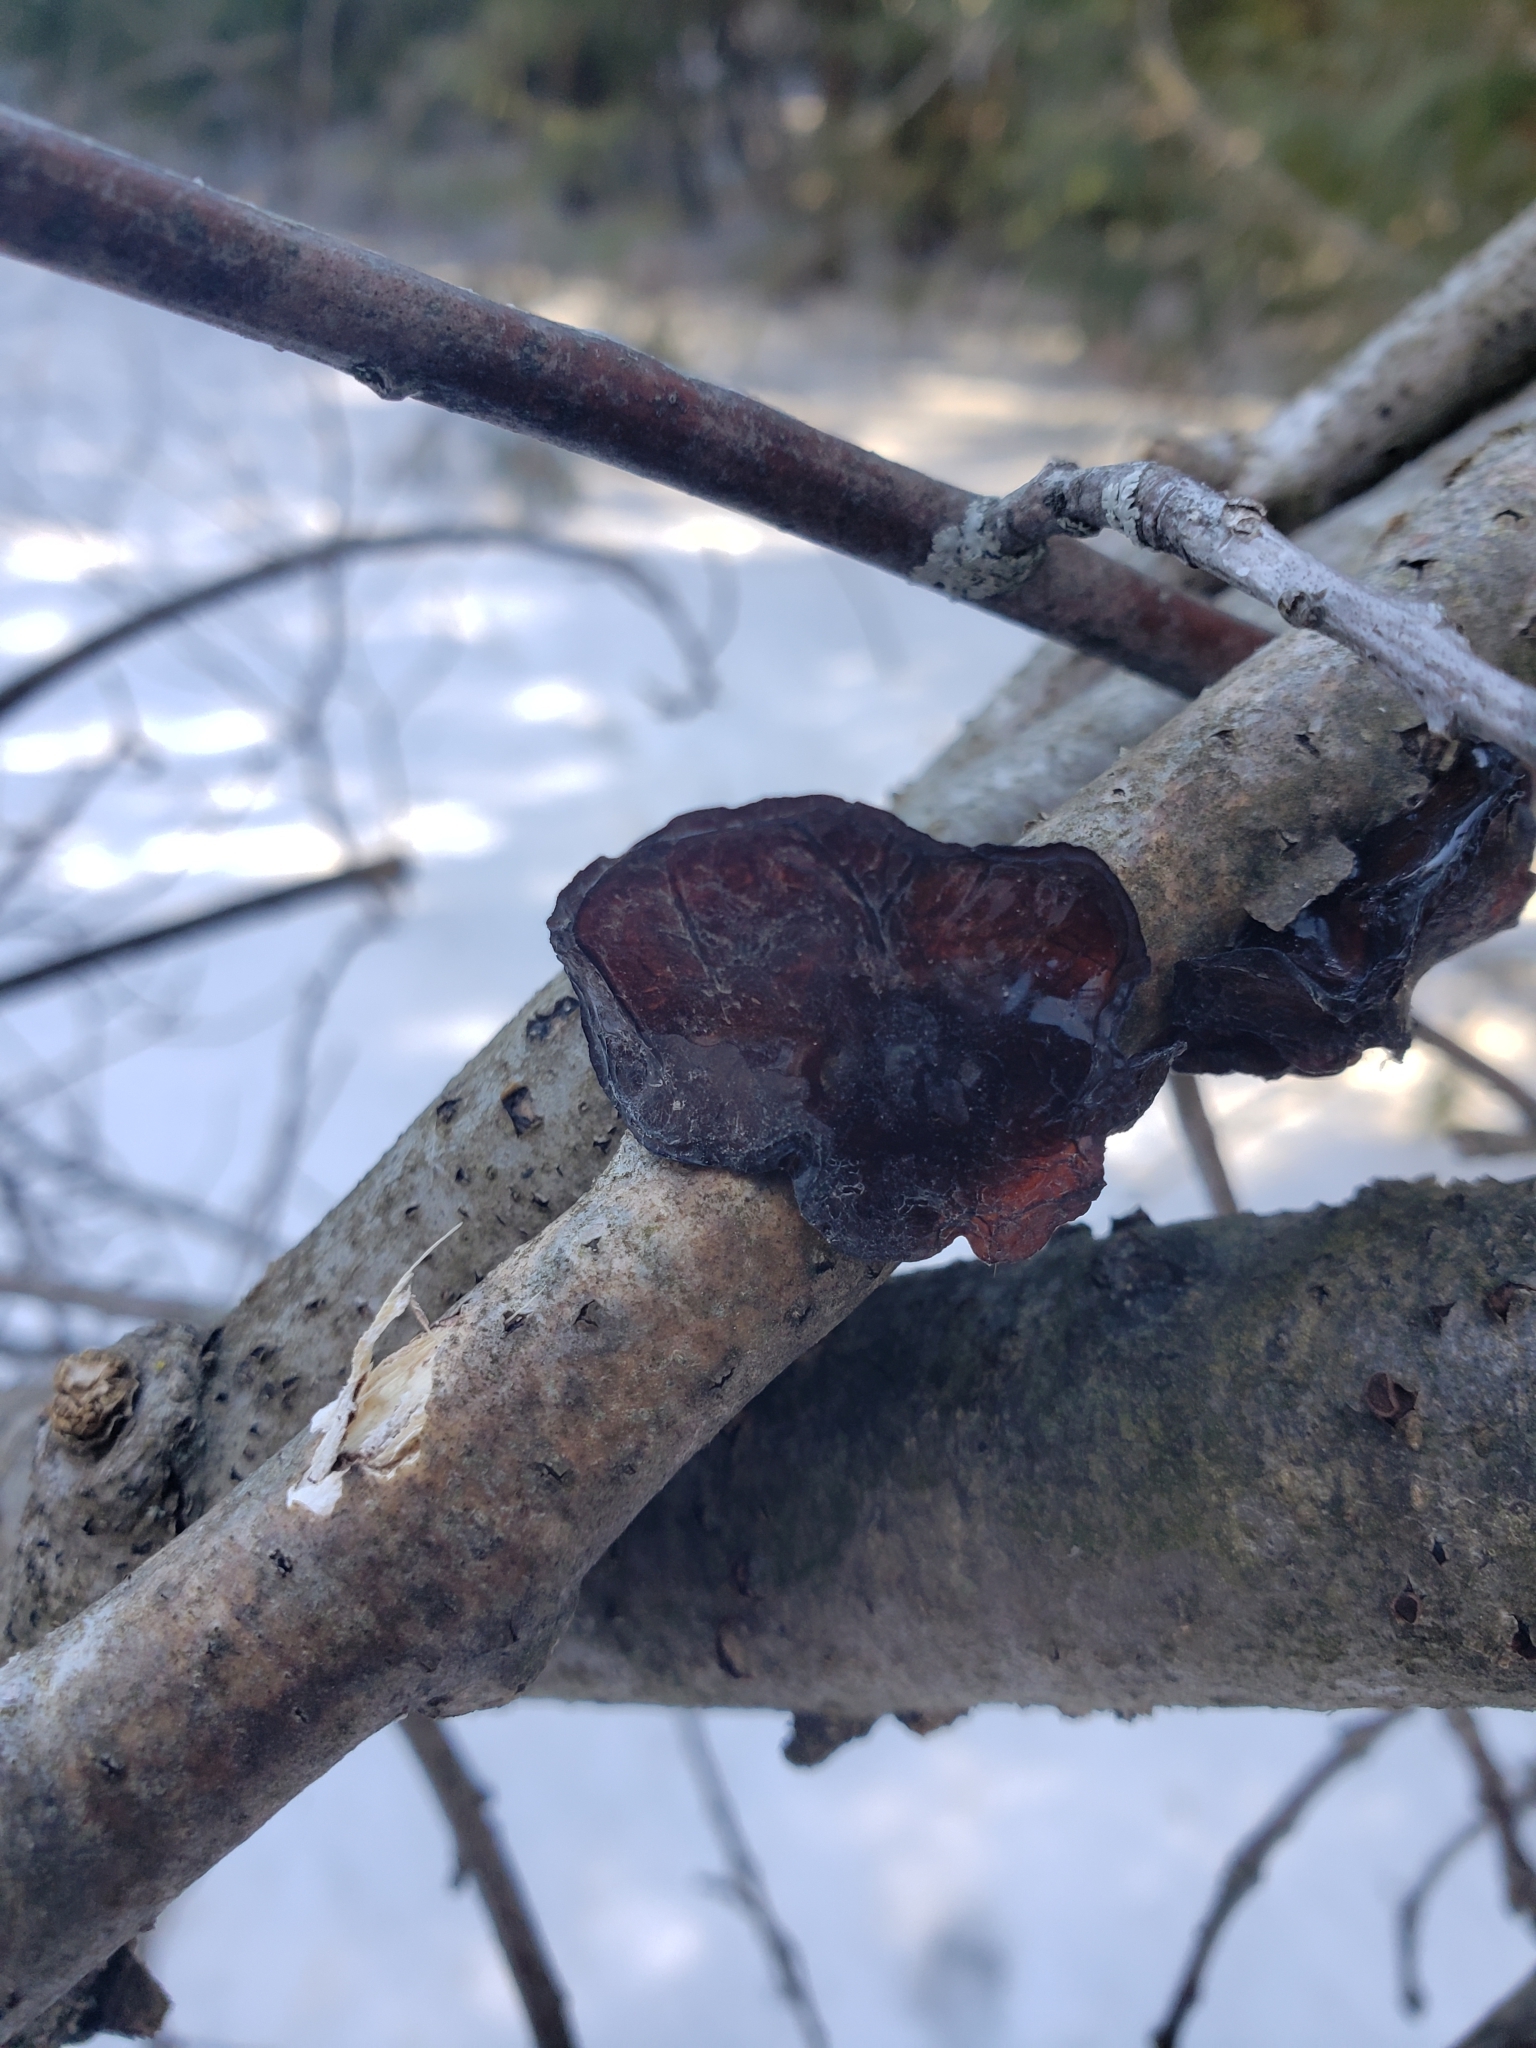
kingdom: Fungi
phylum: Basidiomycota
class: Agaricomycetes
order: Auriculariales
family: Auriculariaceae
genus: Exidia
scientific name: Exidia
